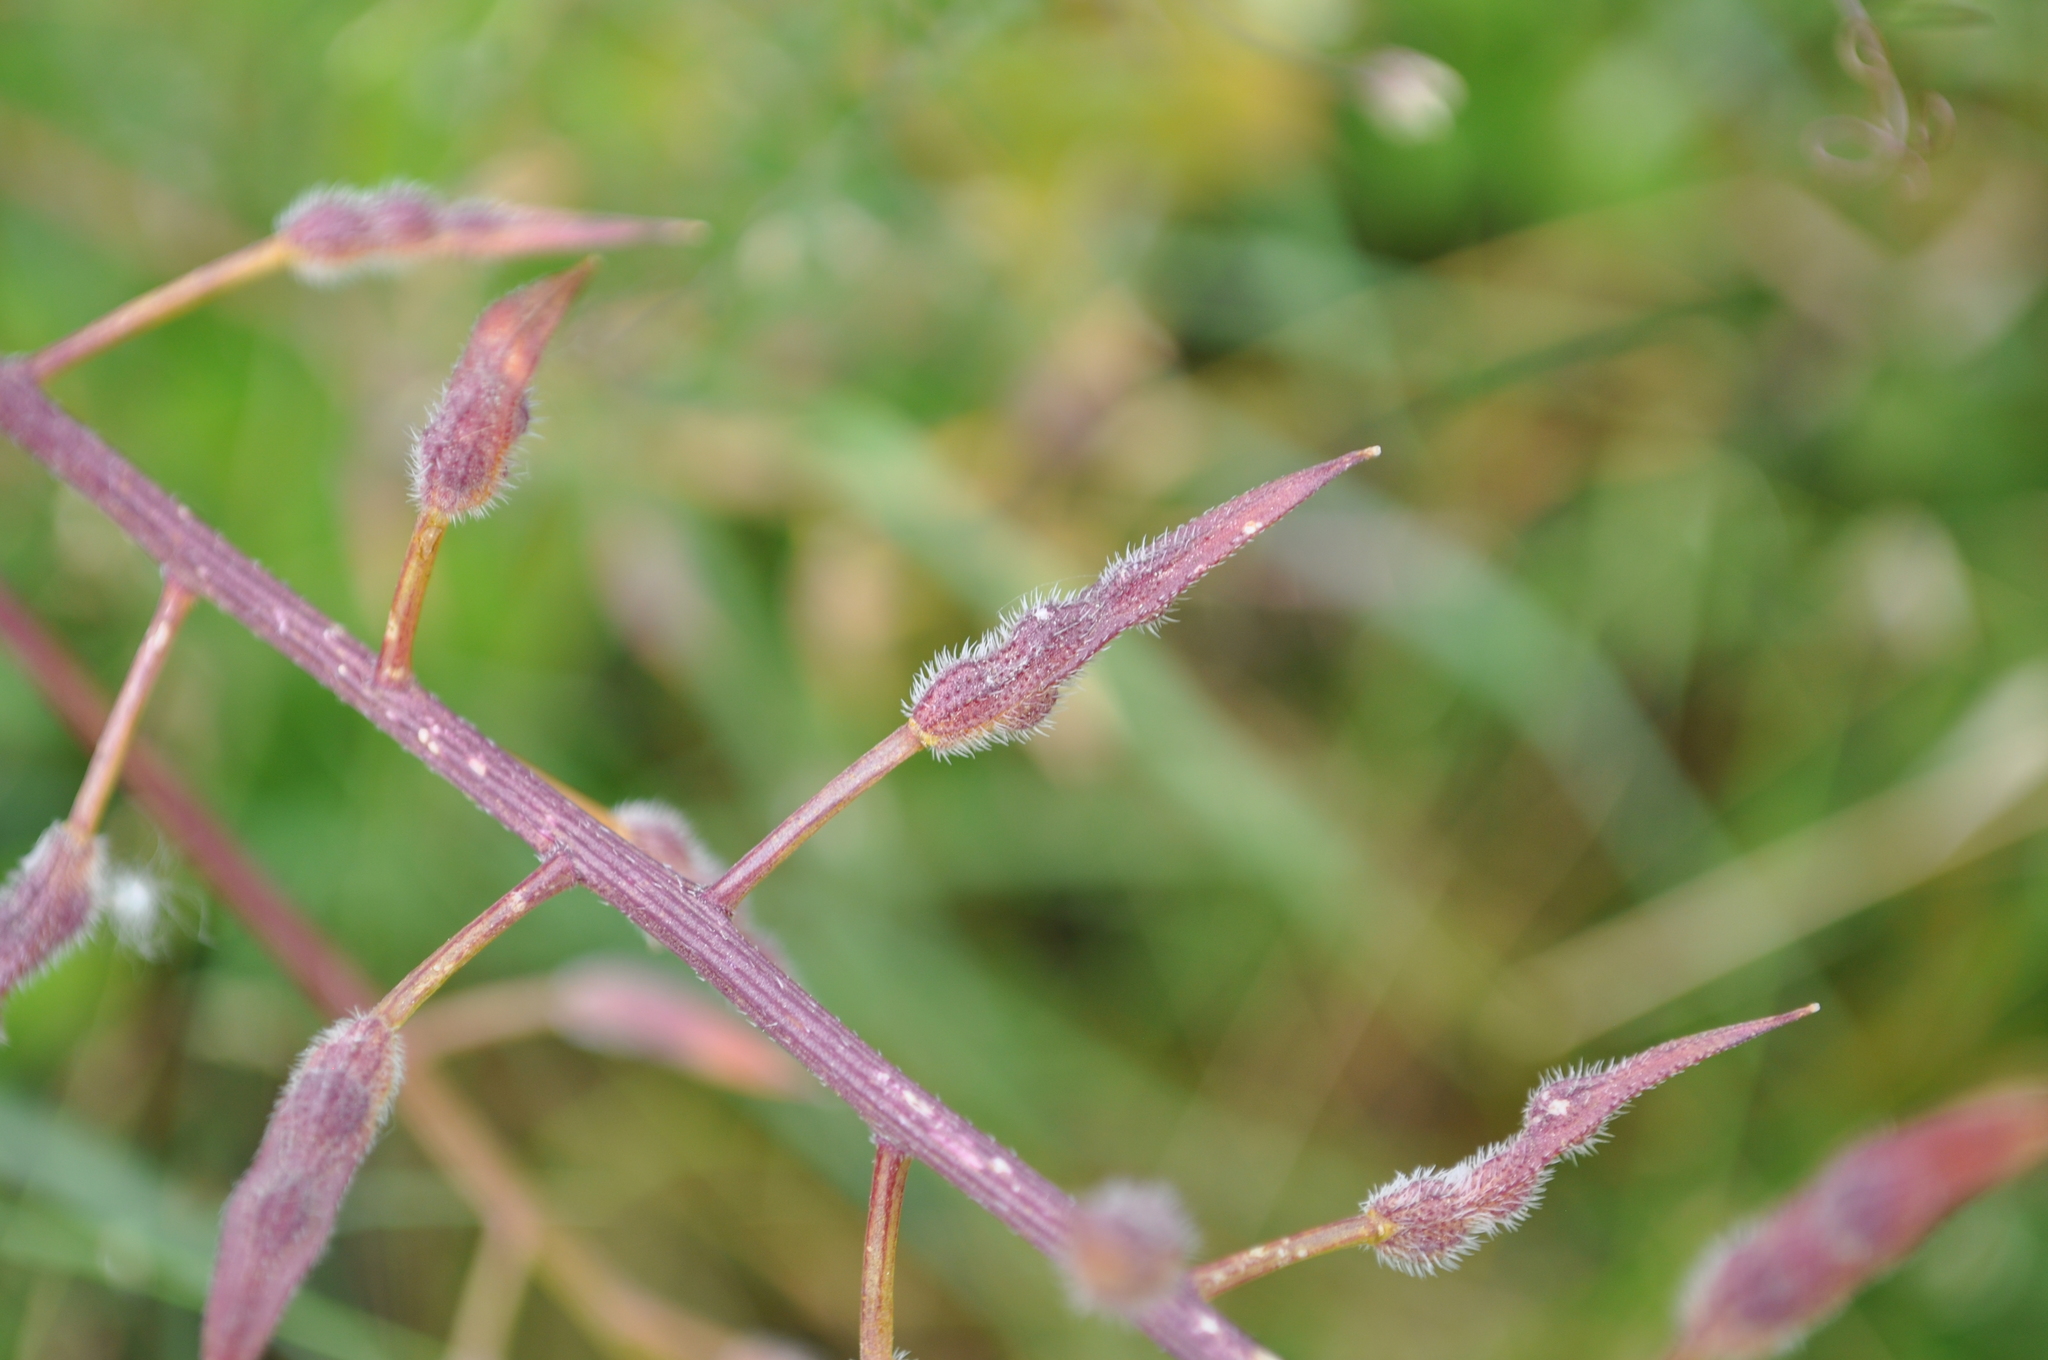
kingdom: Plantae
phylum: Tracheophyta
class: Magnoliopsida
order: Brassicales
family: Brassicaceae
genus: Sinapis
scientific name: Sinapis alba
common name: White mustard
